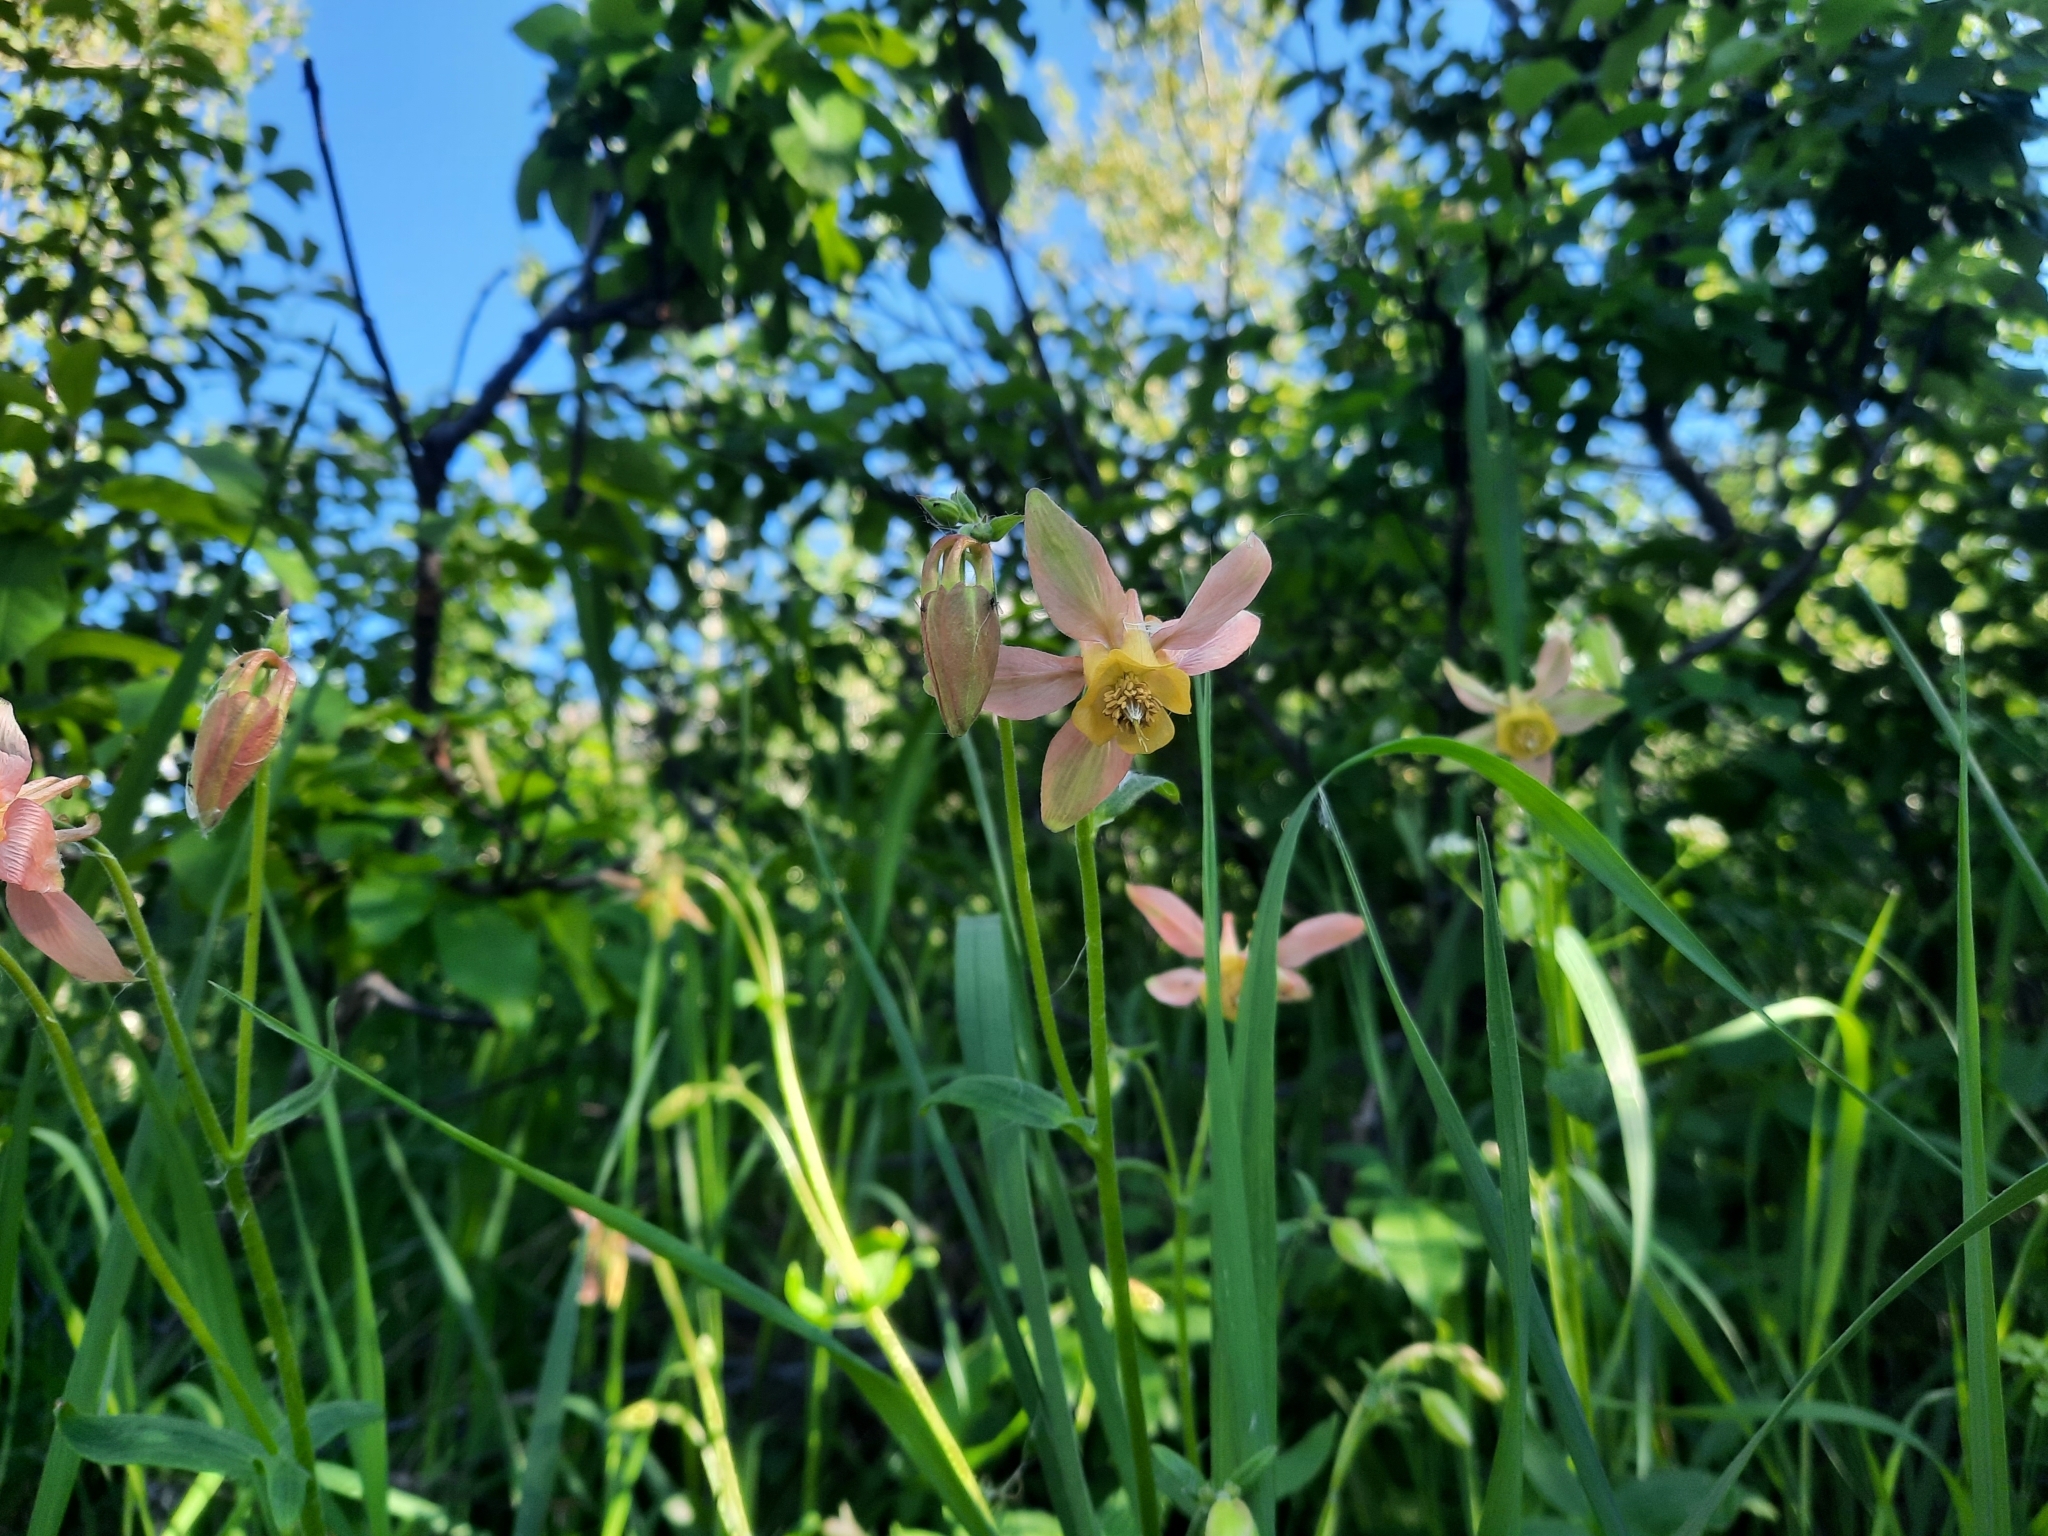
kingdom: Plantae
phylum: Tracheophyta
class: Magnoliopsida
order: Ranunculales
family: Ranunculaceae
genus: Aquilegia
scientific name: Aquilegia flavescens
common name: Yellow columbine
